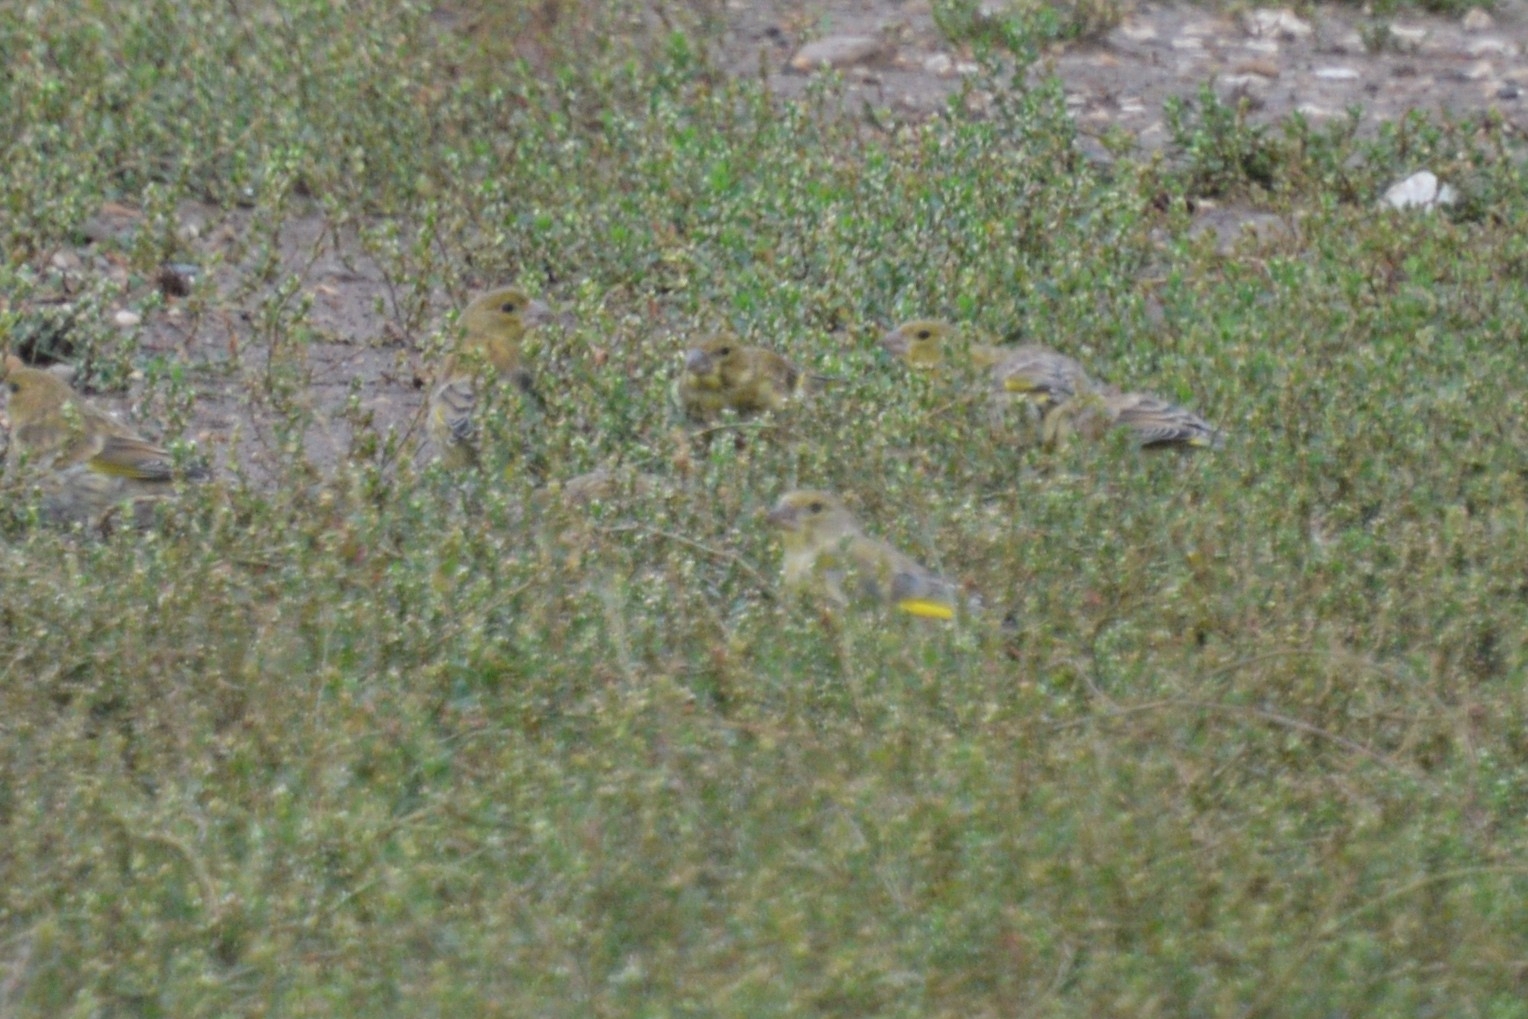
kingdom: Plantae
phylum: Tracheophyta
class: Liliopsida
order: Poales
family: Poaceae
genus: Chloris
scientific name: Chloris chloris
